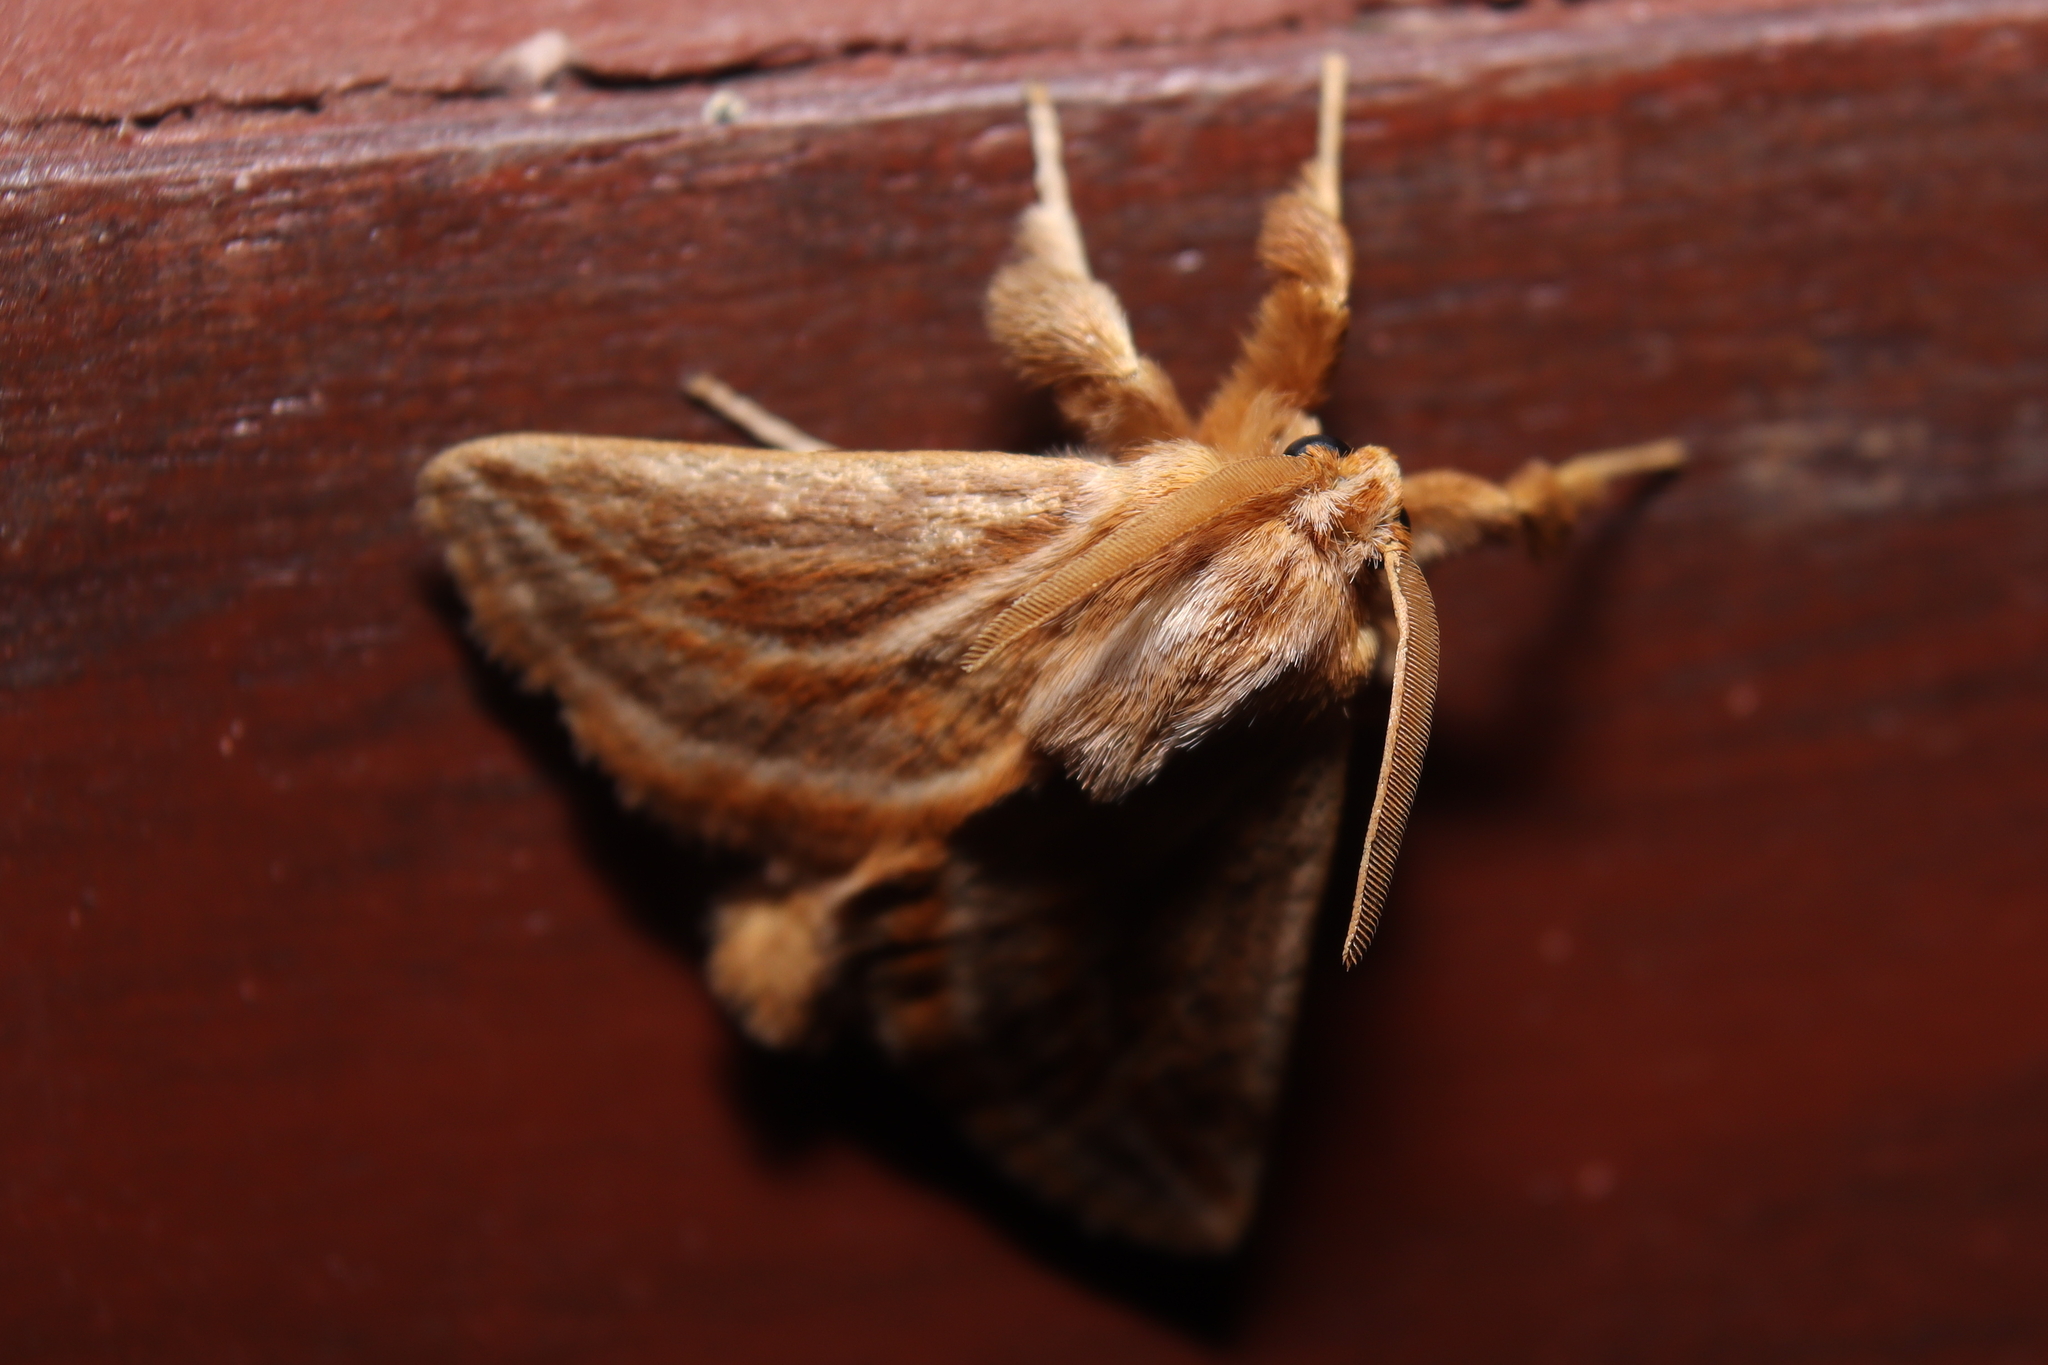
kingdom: Animalia
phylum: Arthropoda
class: Insecta
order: Lepidoptera
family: Limacodidae
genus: Perola
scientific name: Perola chica
